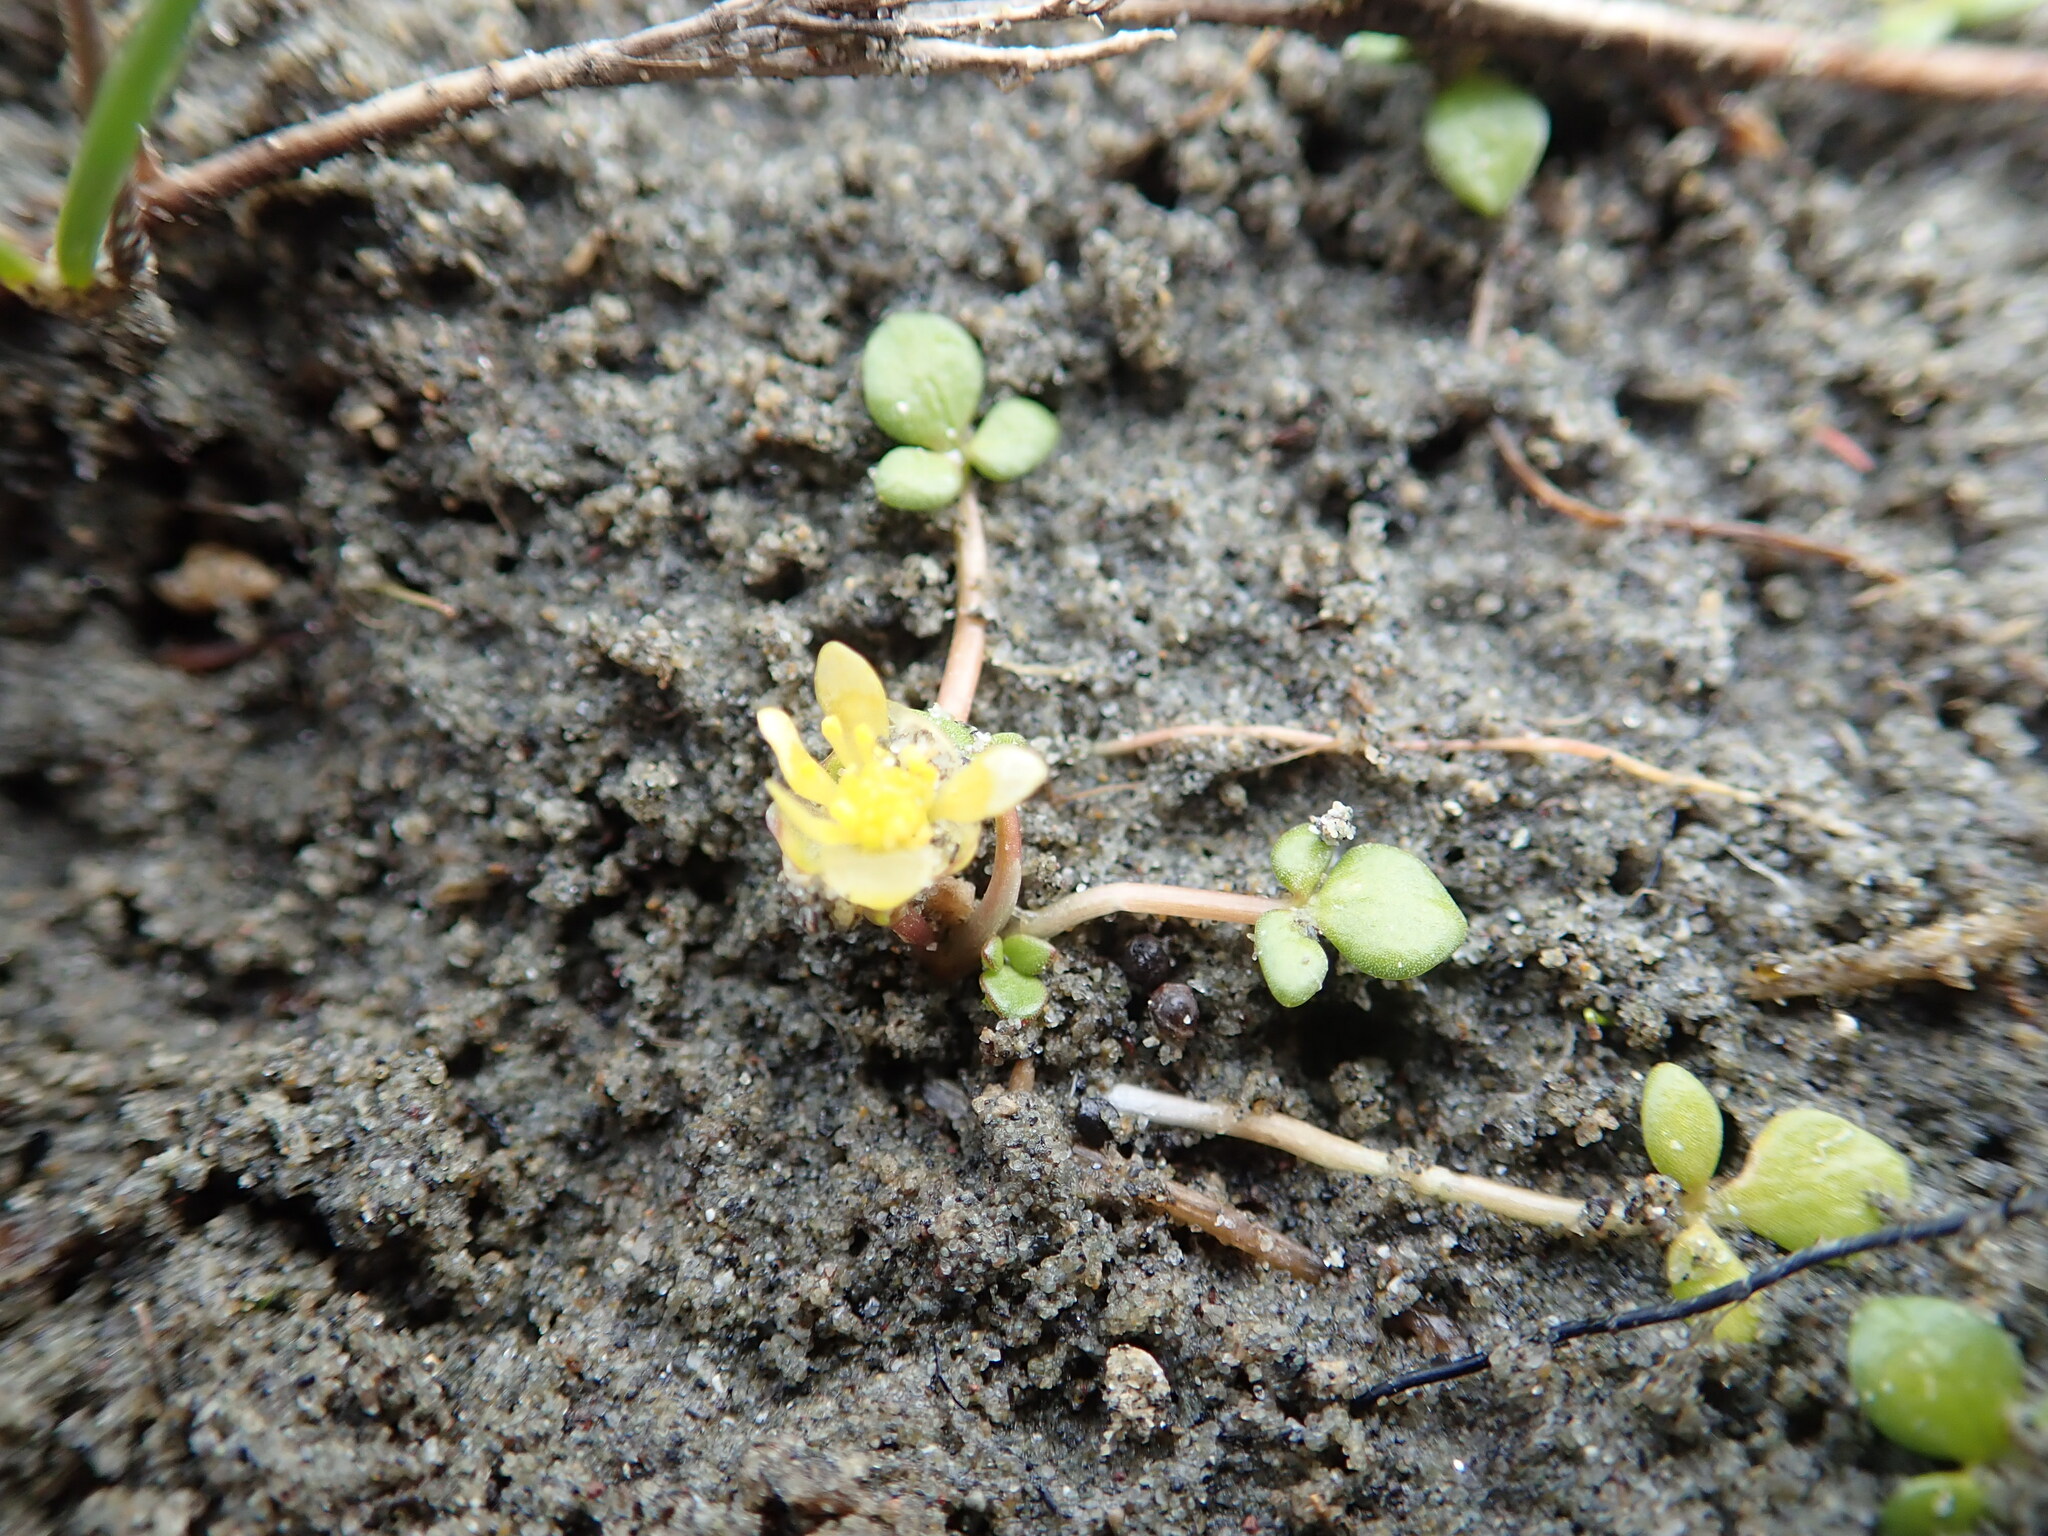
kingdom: Plantae
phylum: Tracheophyta
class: Magnoliopsida
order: Ranunculales
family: Ranunculaceae
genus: Ranunculus
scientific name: Ranunculus acaulis
